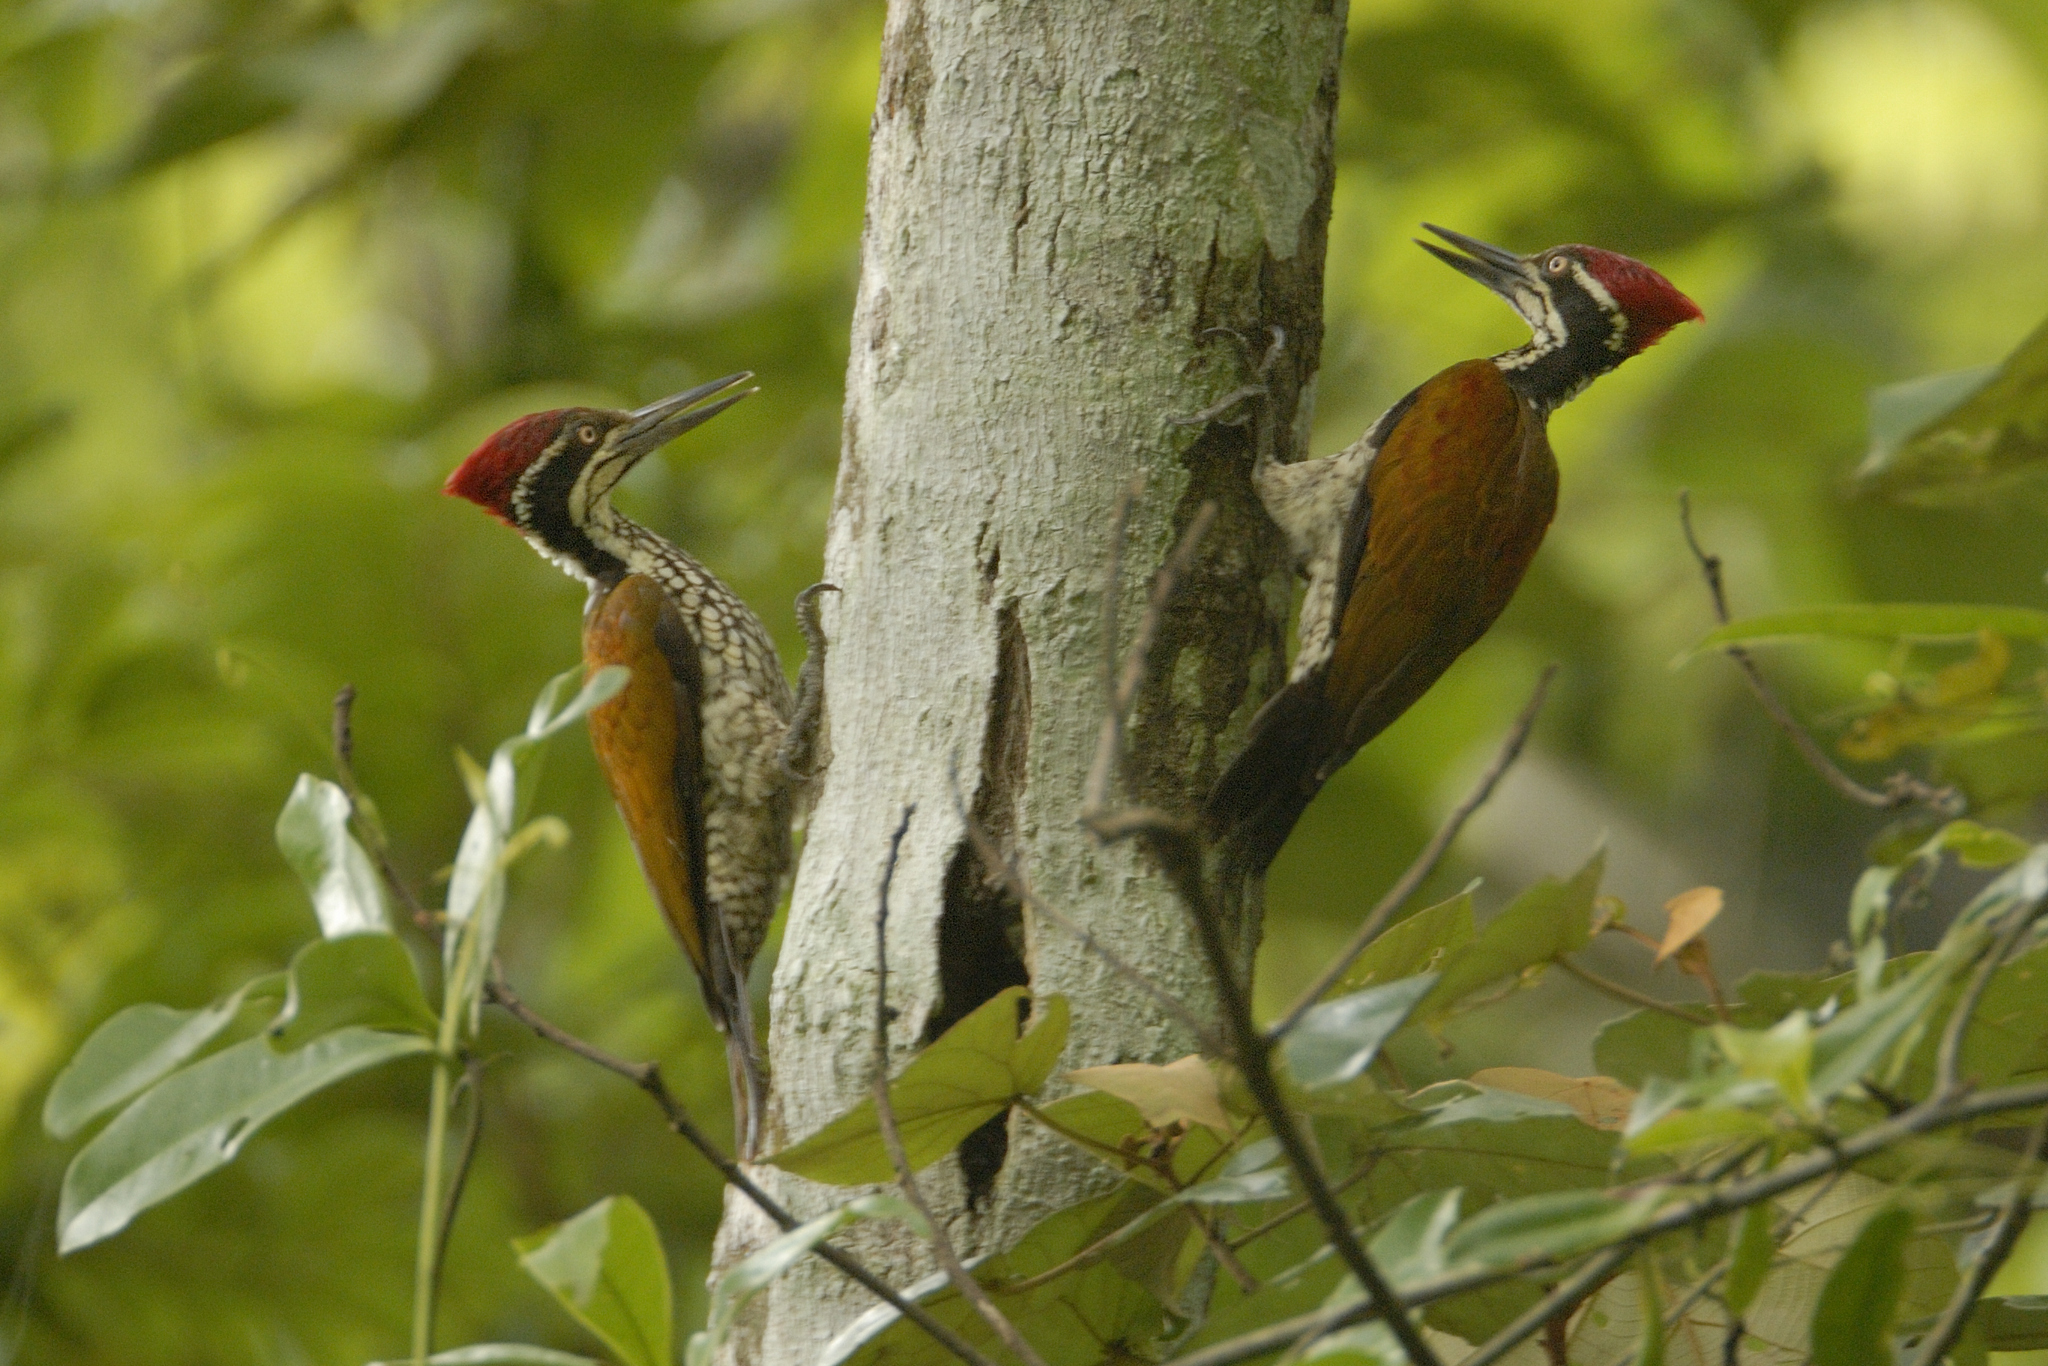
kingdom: Animalia
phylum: Chordata
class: Aves
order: Piciformes
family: Picidae
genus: Chrysocolaptes
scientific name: Chrysocolaptes socialis
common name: Malabar flameback
